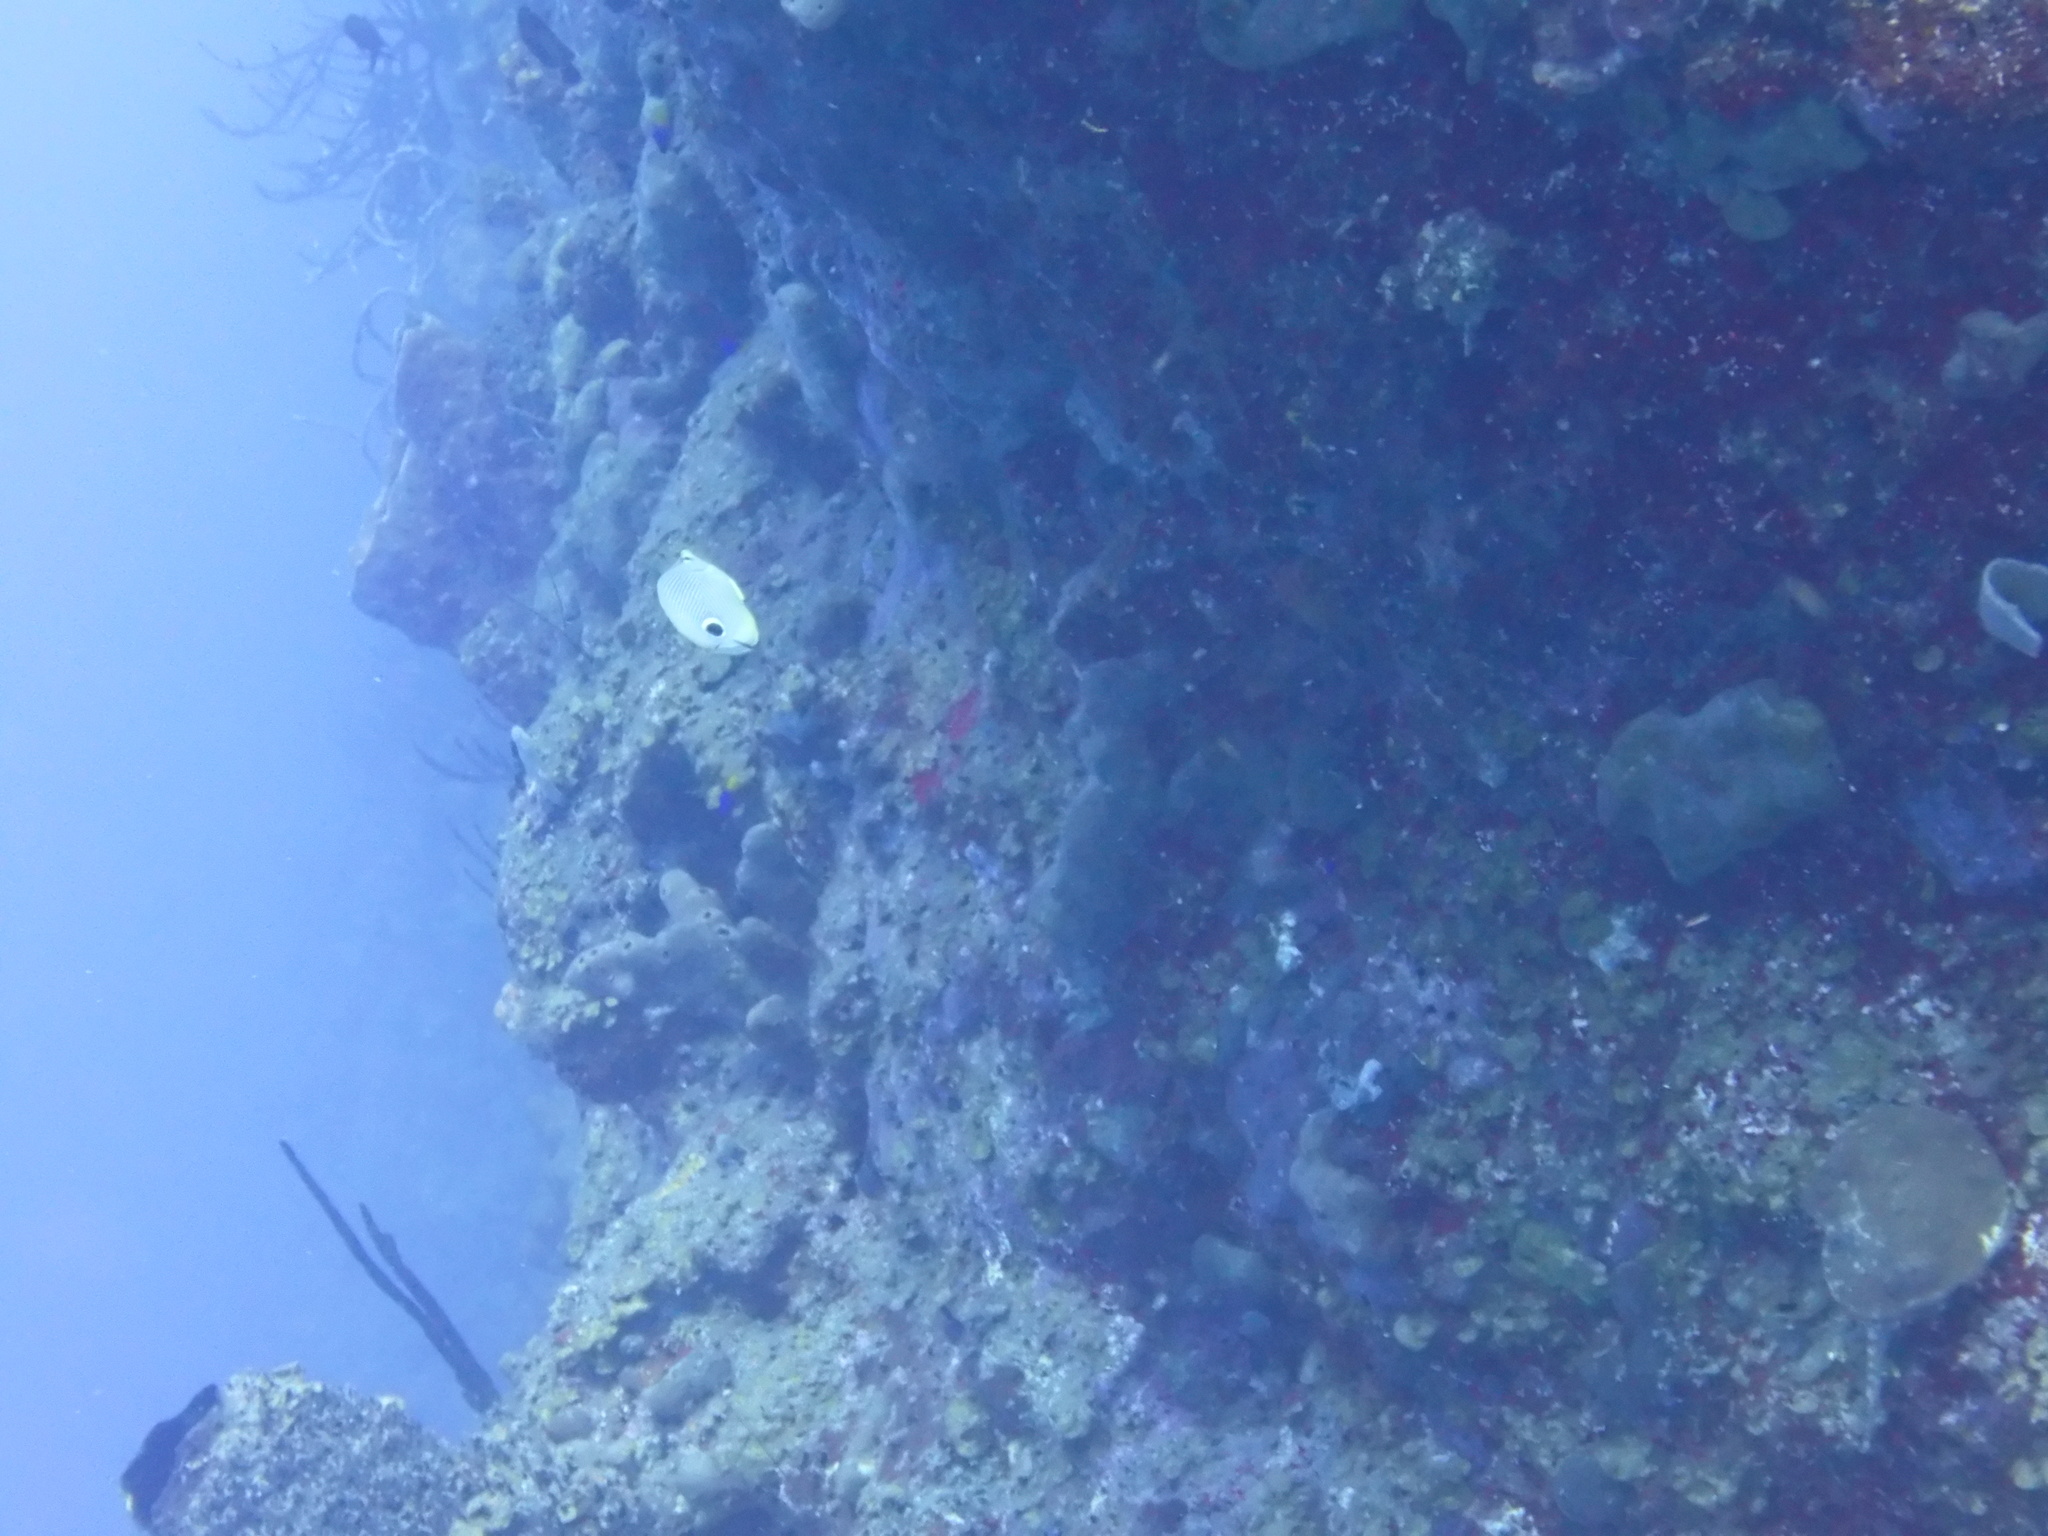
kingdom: Animalia
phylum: Chordata
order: Perciformes
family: Chaetodontidae
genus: Chaetodon
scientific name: Chaetodon capistratus
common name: Kete
